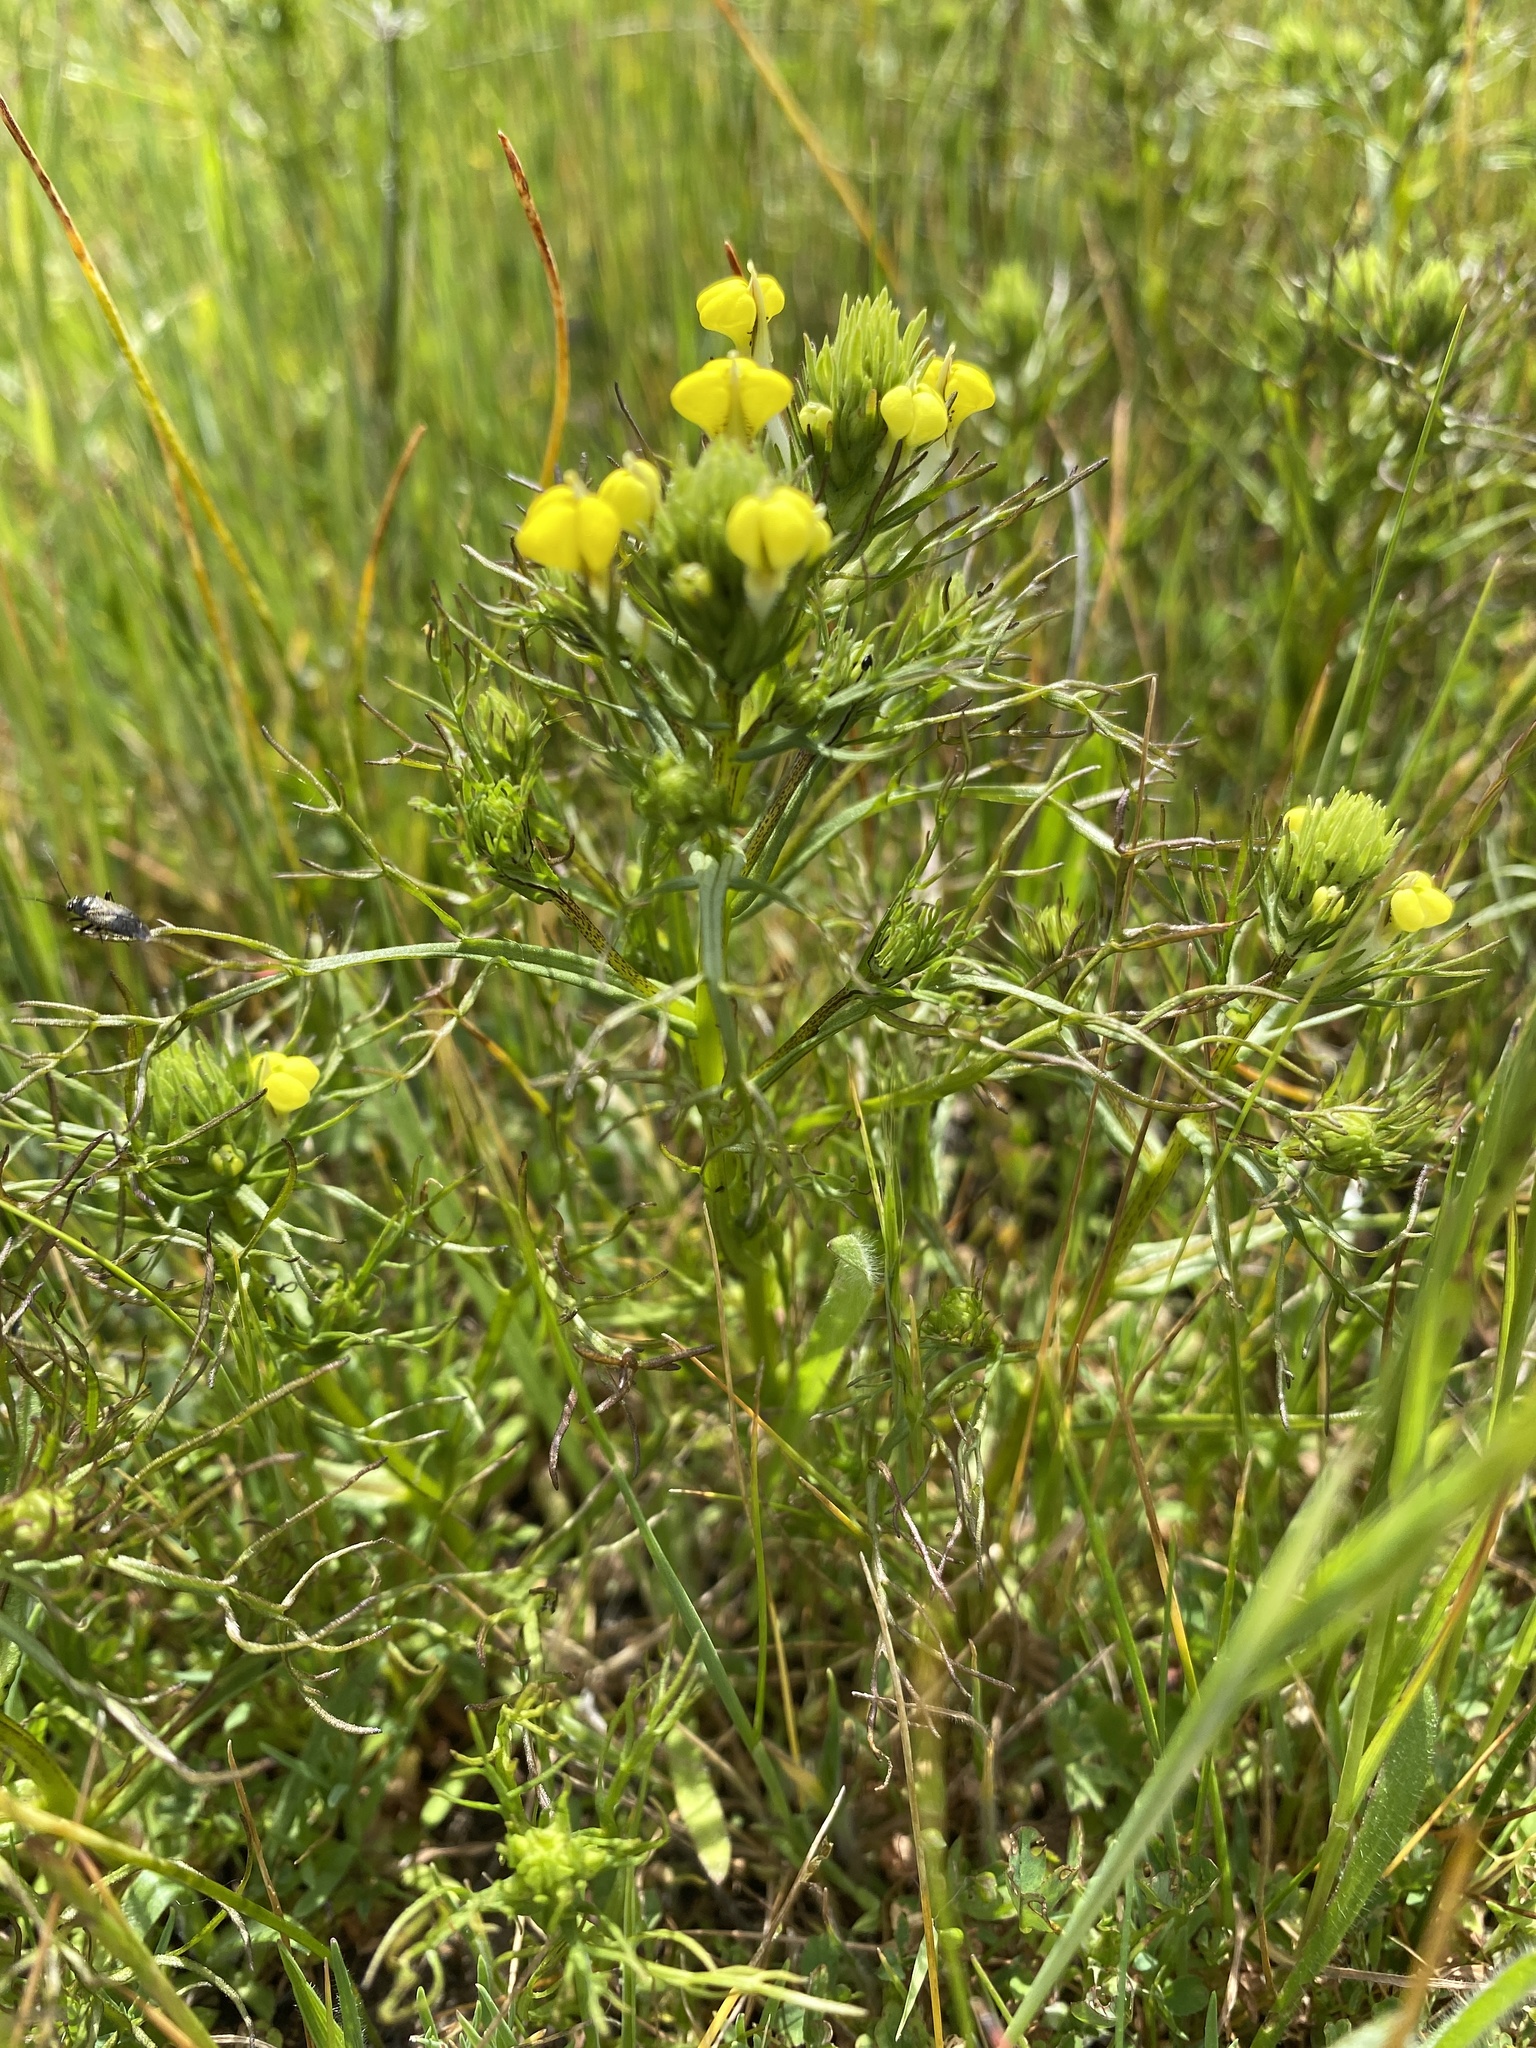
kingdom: Plantae
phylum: Tracheophyta
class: Magnoliopsida
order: Lamiales
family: Orobanchaceae
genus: Triphysaria
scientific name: Triphysaria versicolor
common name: Bearded false owl-clover
